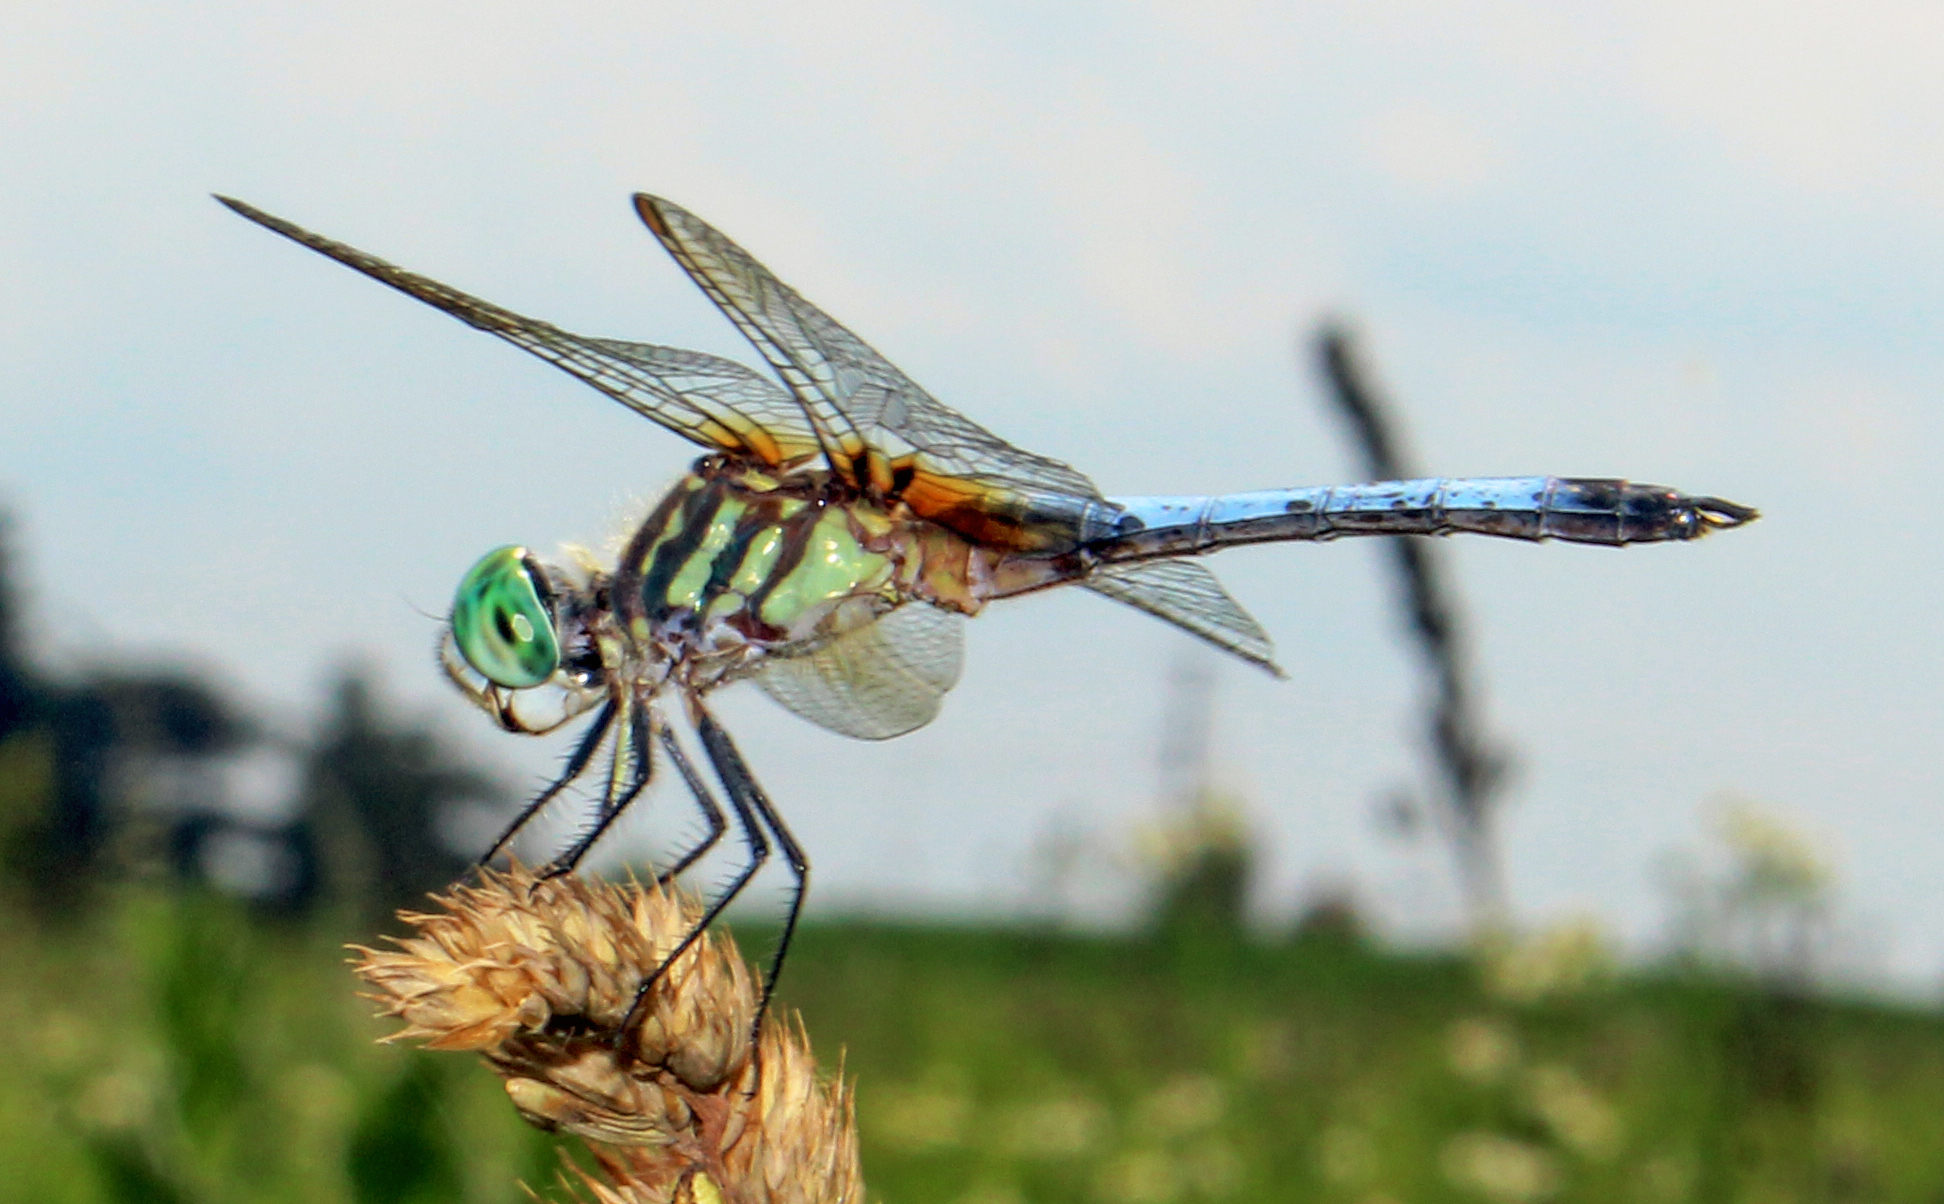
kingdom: Animalia
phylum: Arthropoda
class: Insecta
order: Odonata
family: Libellulidae
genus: Pachydiplax
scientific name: Pachydiplax longipennis
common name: Blue dasher
